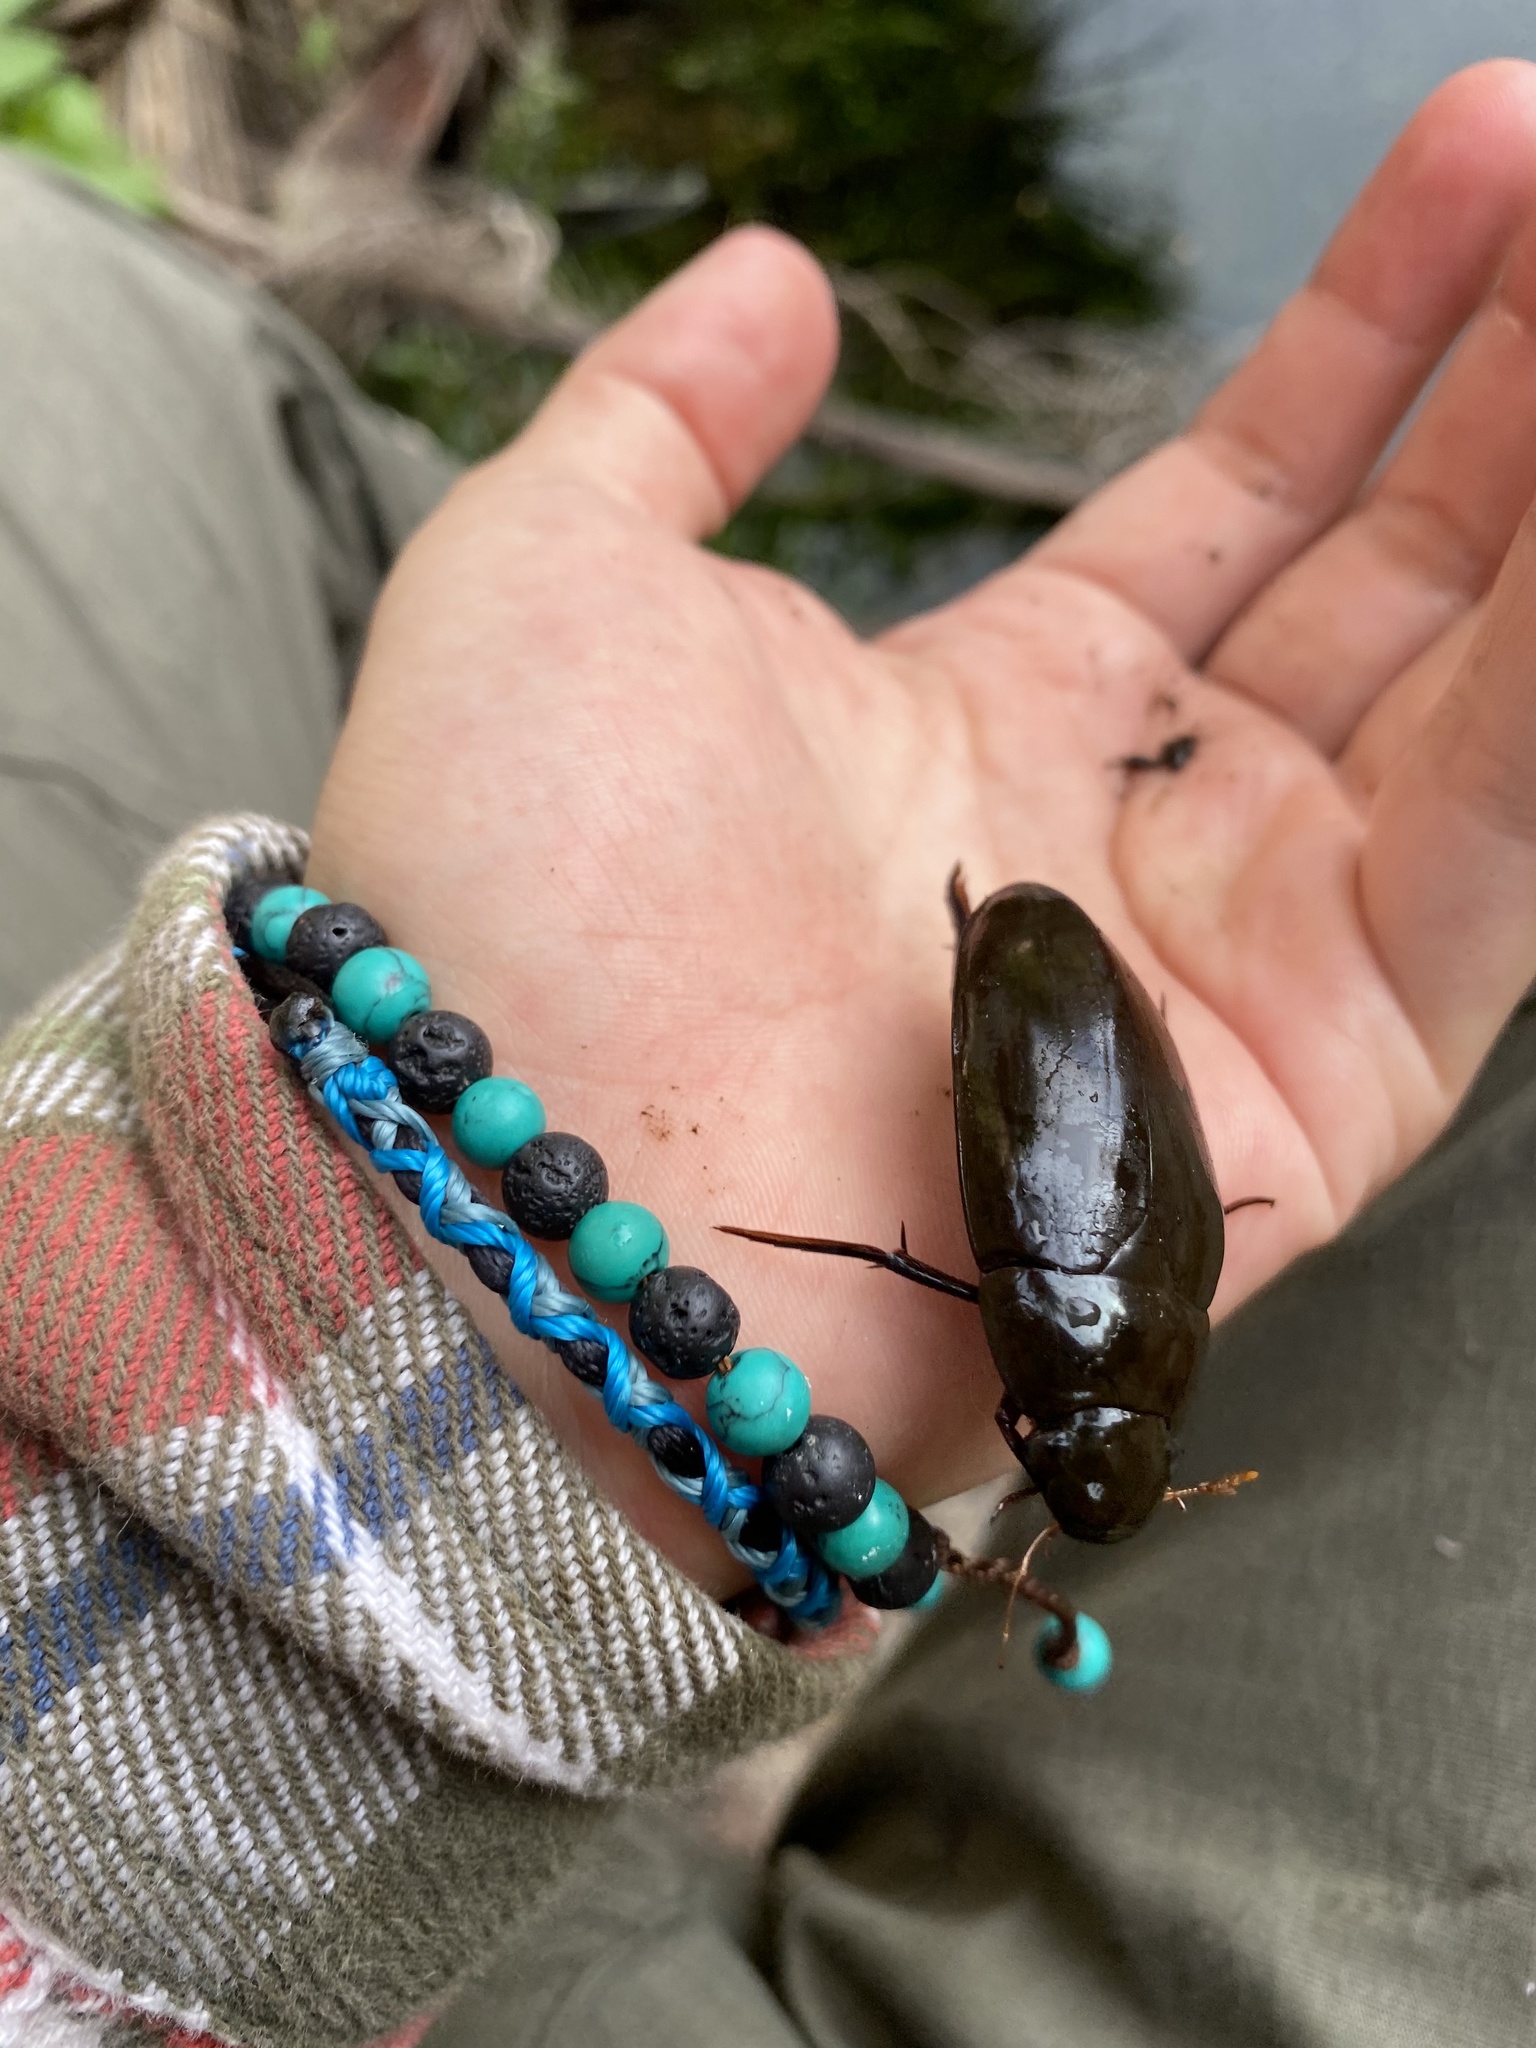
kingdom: Animalia
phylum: Arthropoda
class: Insecta
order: Coleoptera
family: Hydrophilidae
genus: Hydrophilus
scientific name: Hydrophilus
